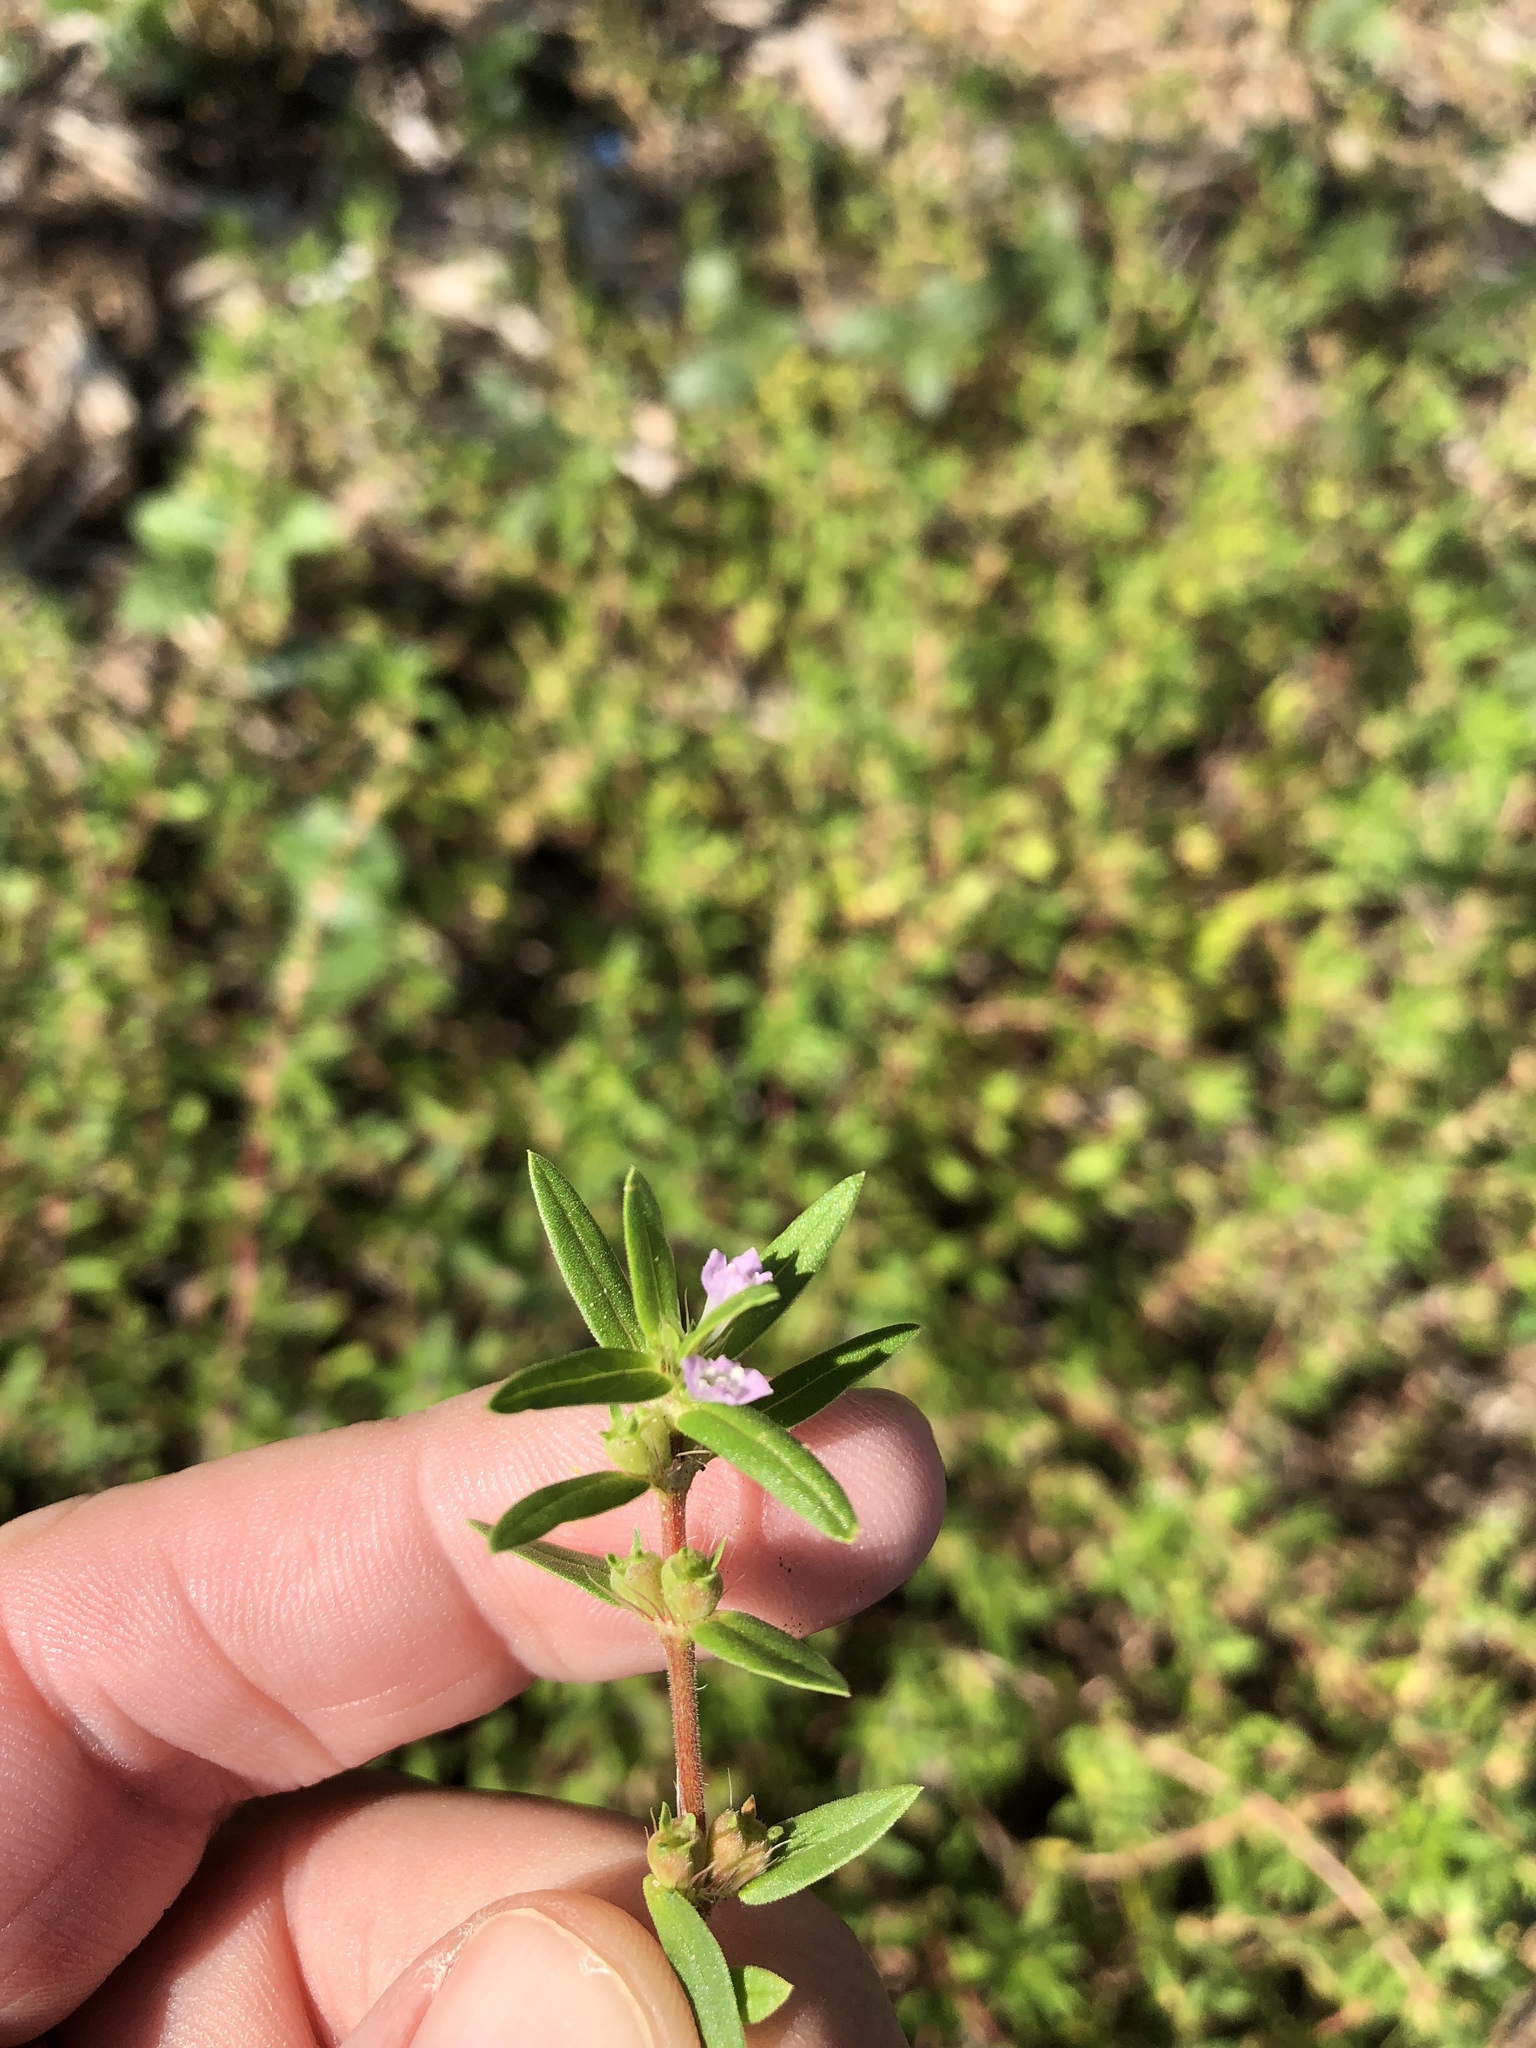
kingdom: Plantae
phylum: Tracheophyta
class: Magnoliopsida
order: Gentianales
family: Rubiaceae
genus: Hexasepalum
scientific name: Hexasepalum teres
